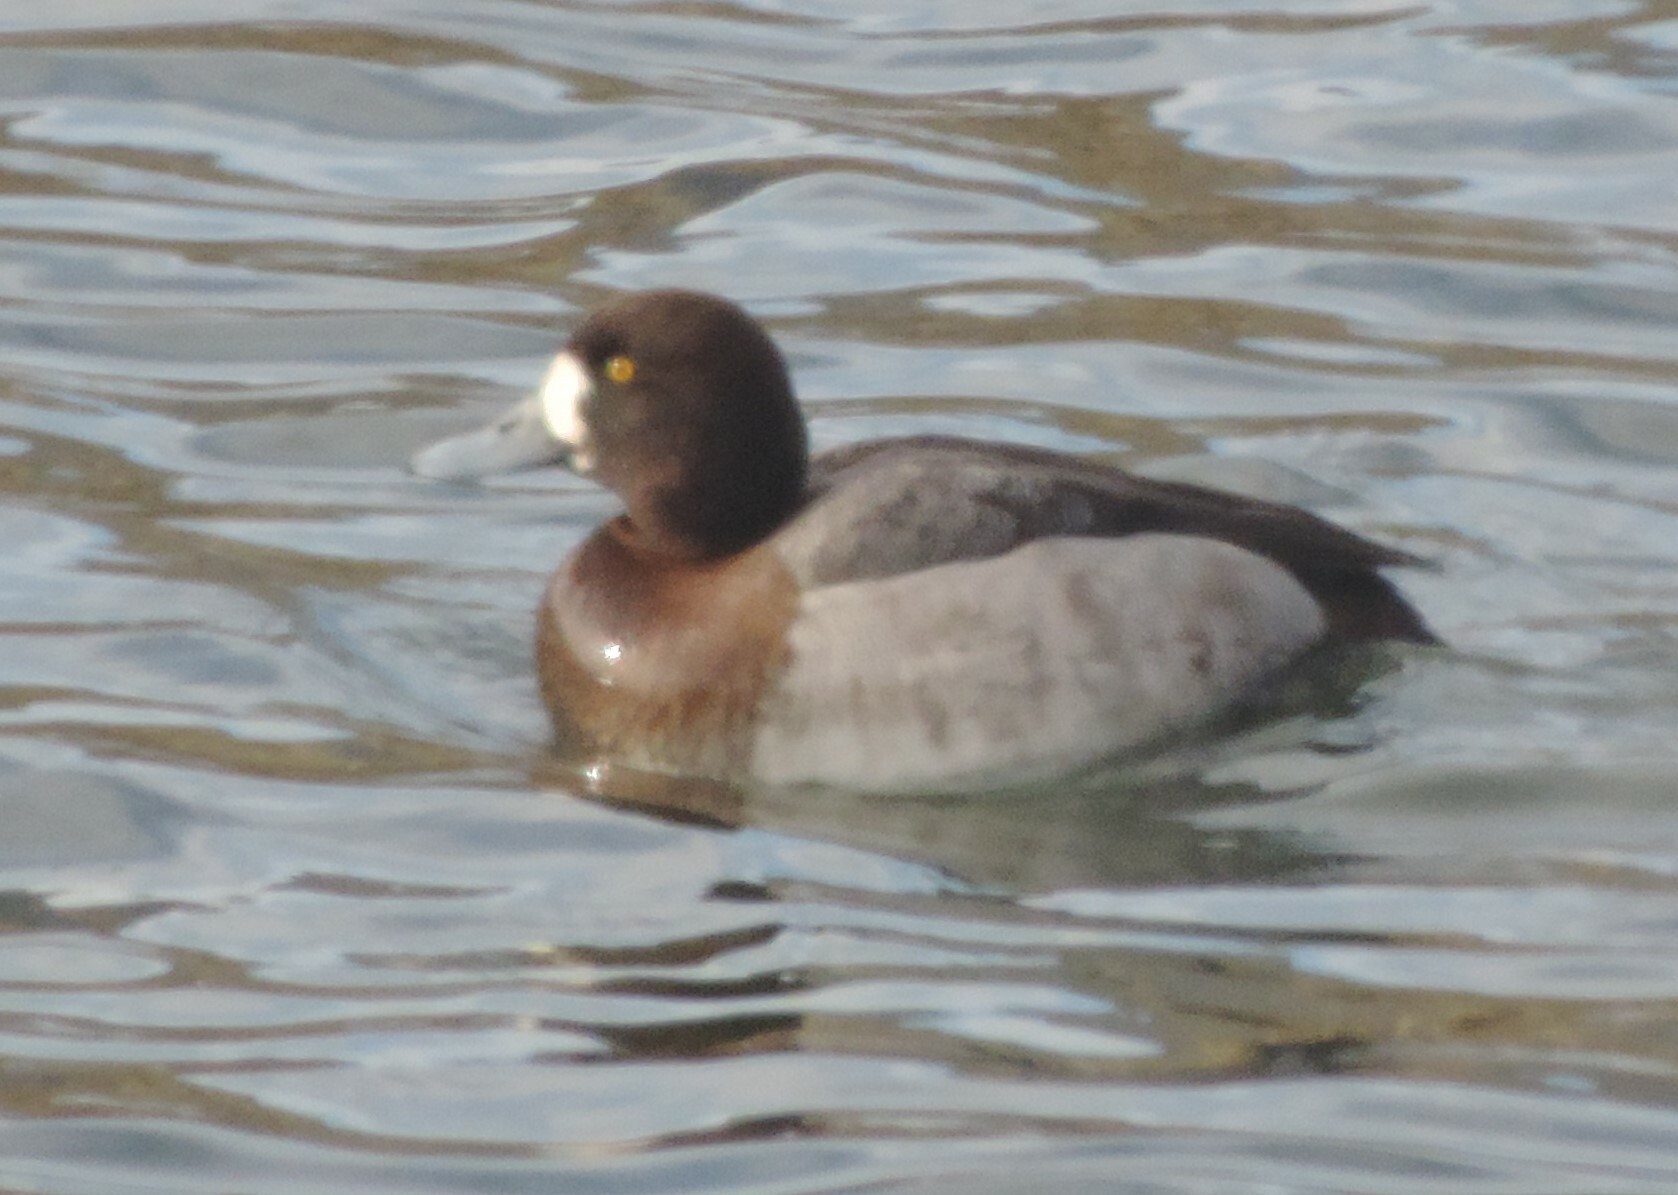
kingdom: Animalia
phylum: Chordata
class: Aves
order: Anseriformes
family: Anatidae
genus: Aythya
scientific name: Aythya marila
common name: Greater scaup
